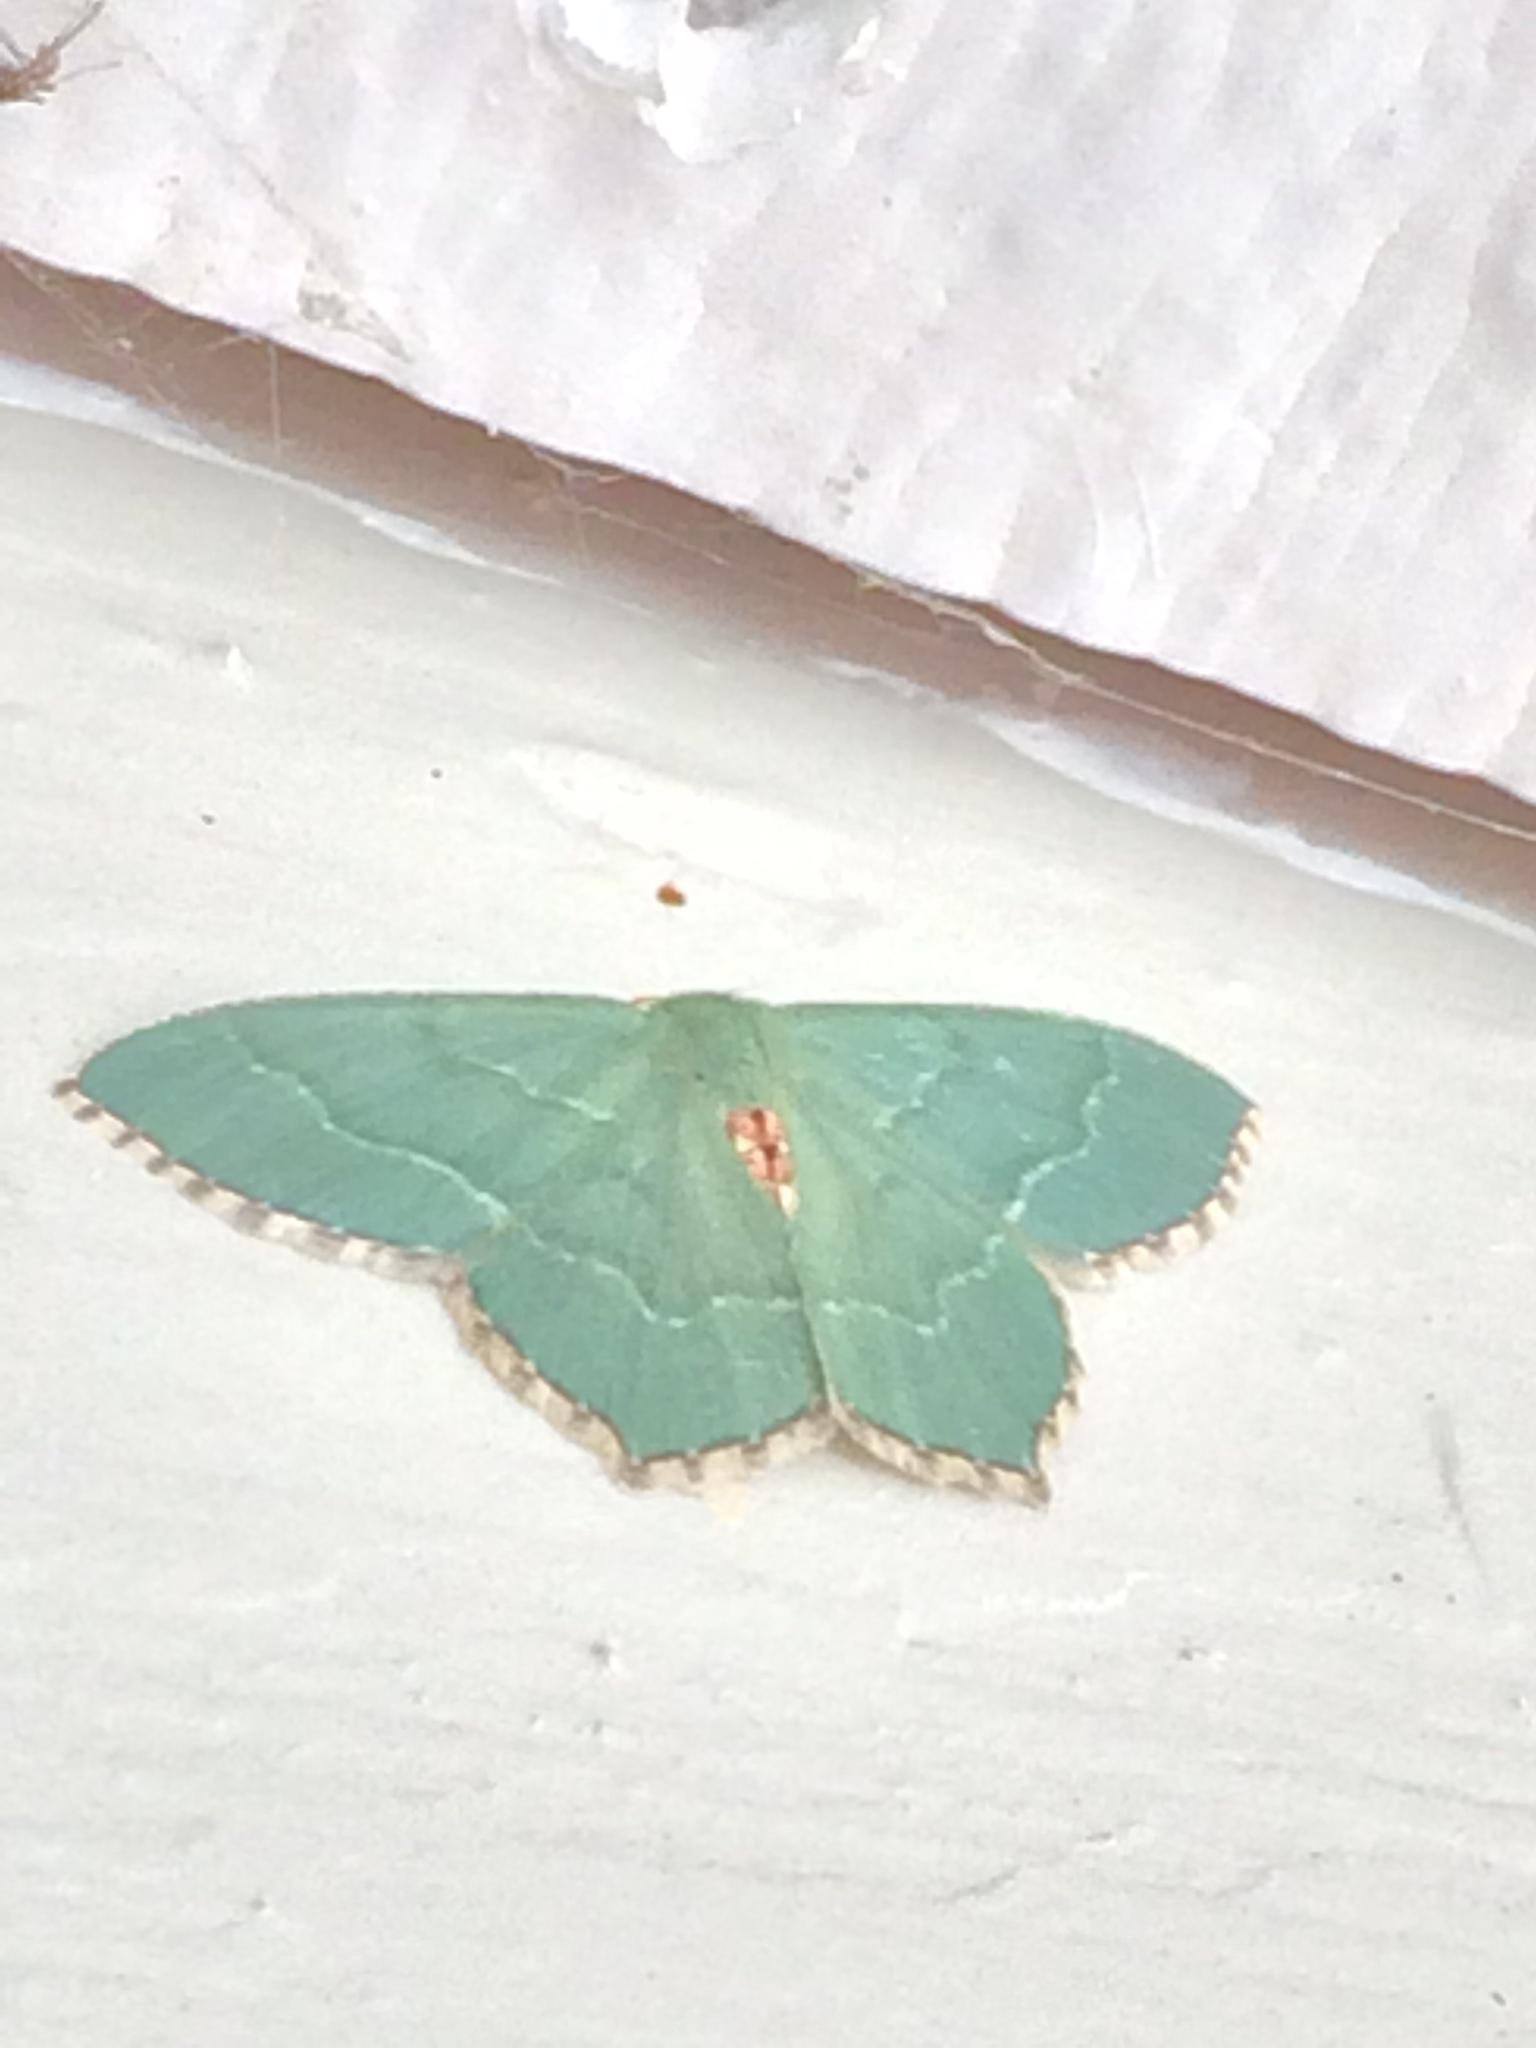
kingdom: Animalia
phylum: Arthropoda
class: Insecta
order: Lepidoptera
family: Geometridae
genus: Hemithea
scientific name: Hemithea aestivaria
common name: Common emerald
